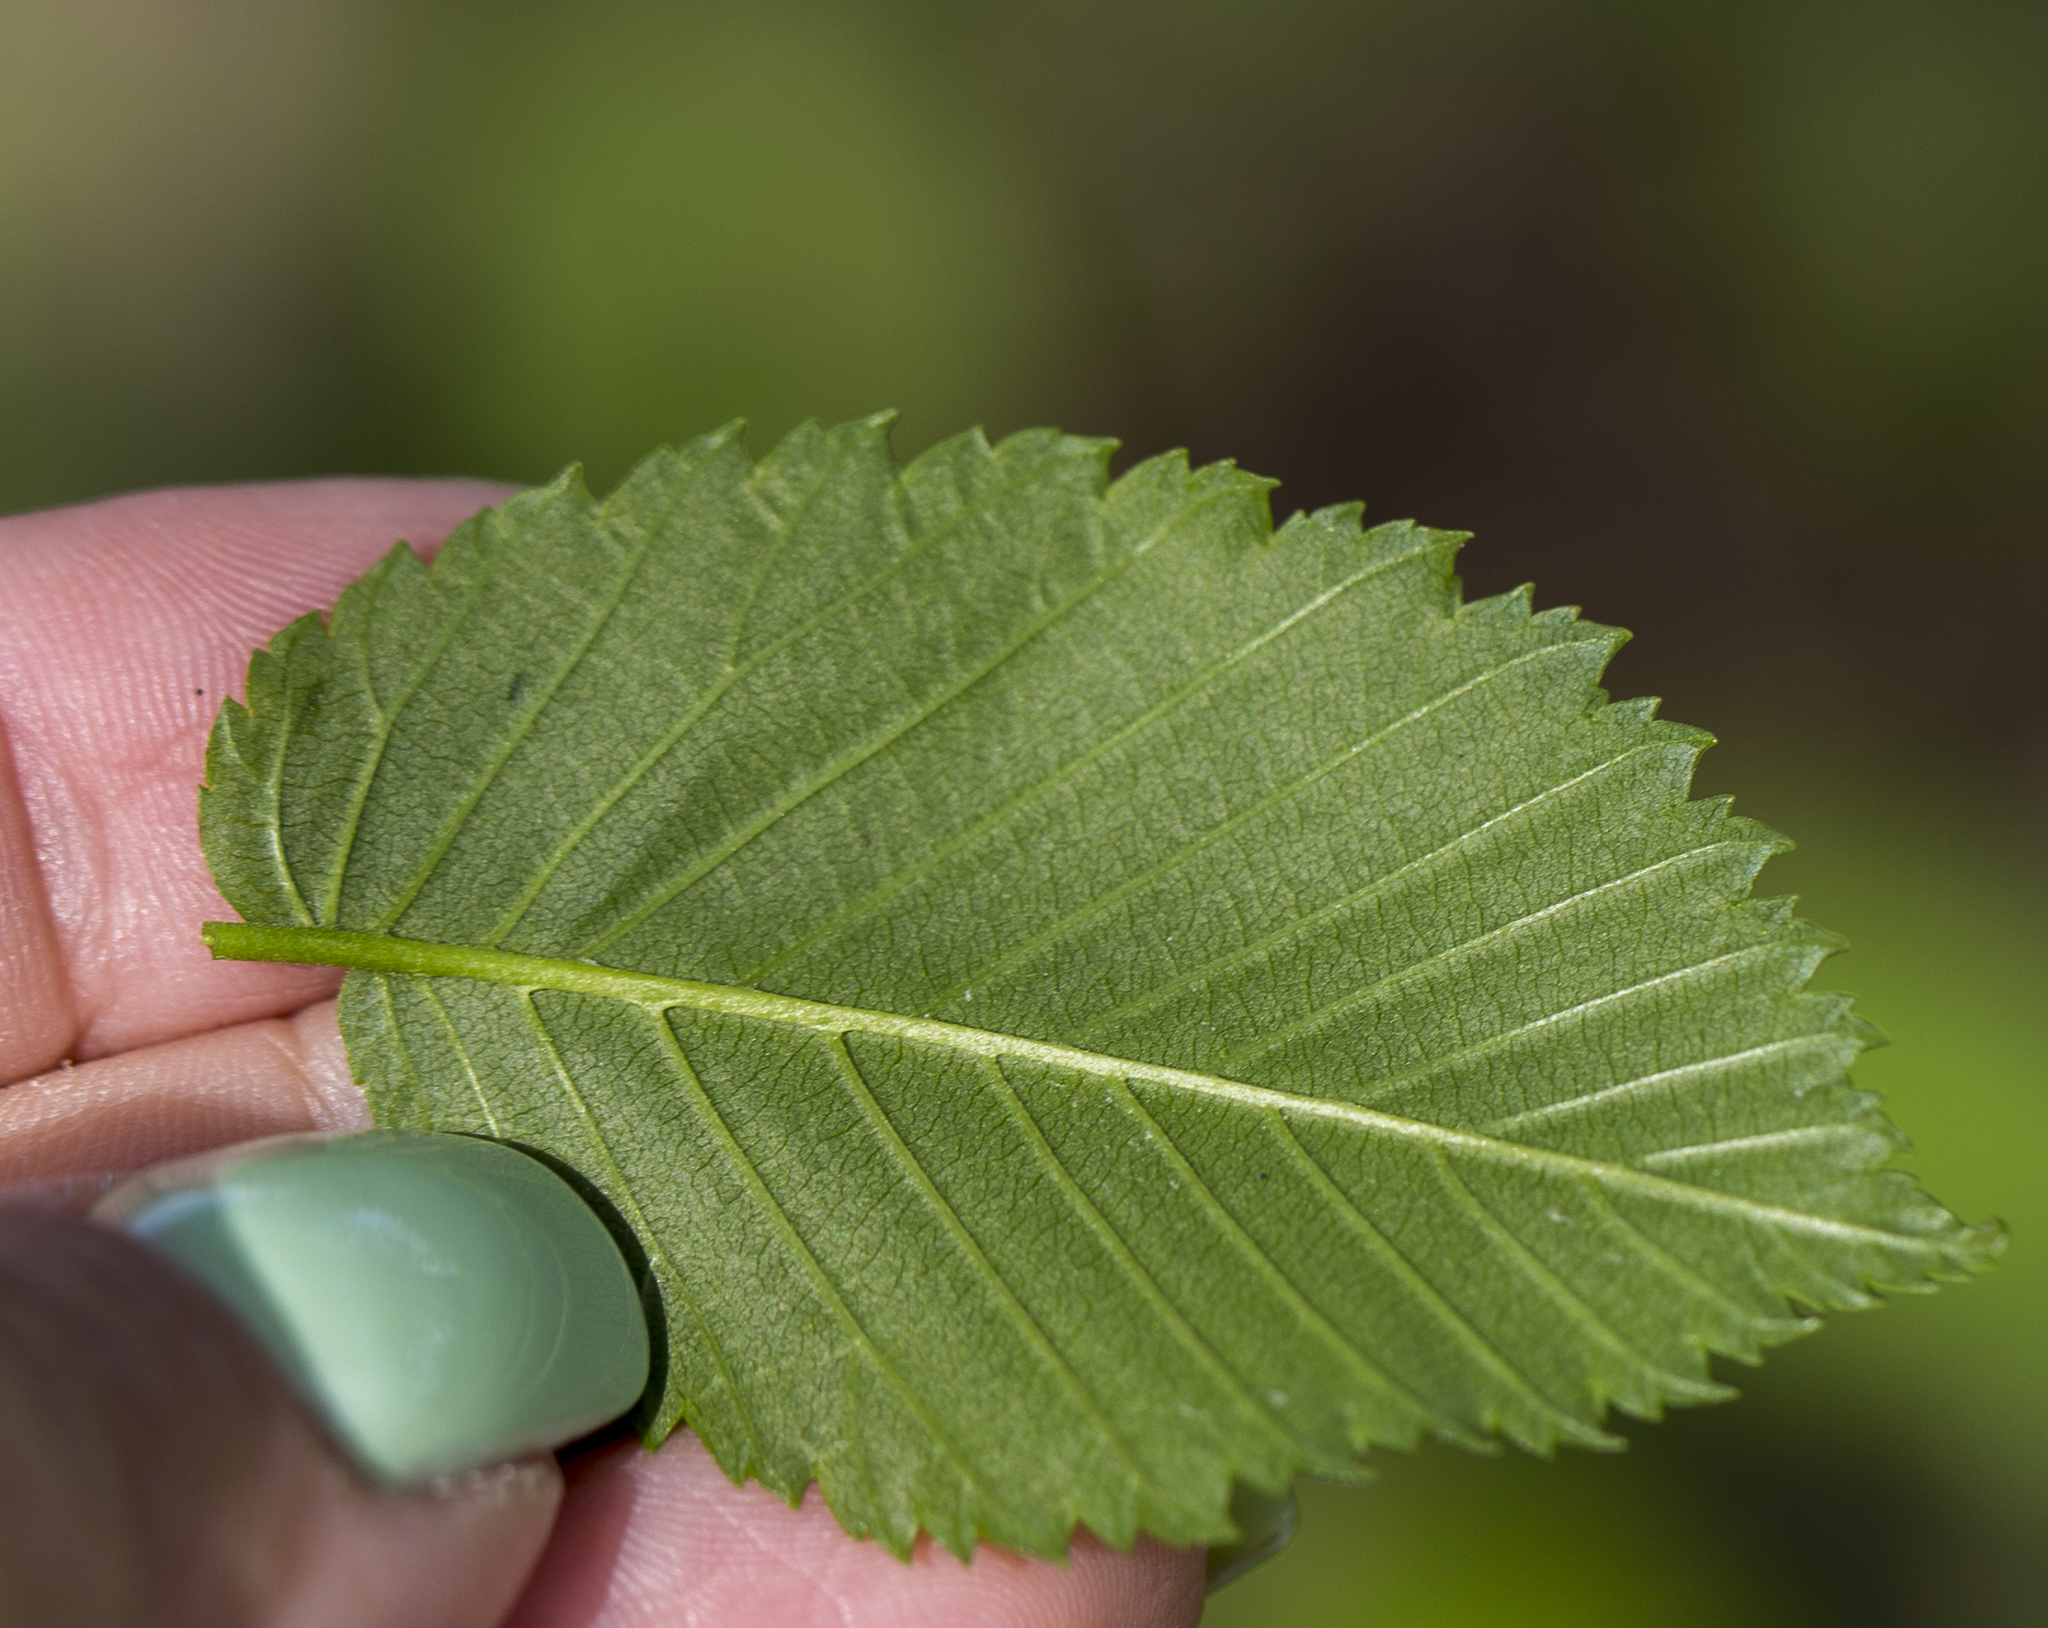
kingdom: Plantae
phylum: Tracheophyta
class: Magnoliopsida
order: Rosales
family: Ulmaceae
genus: Ulmus
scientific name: Ulmus laevis
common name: European white-elm
